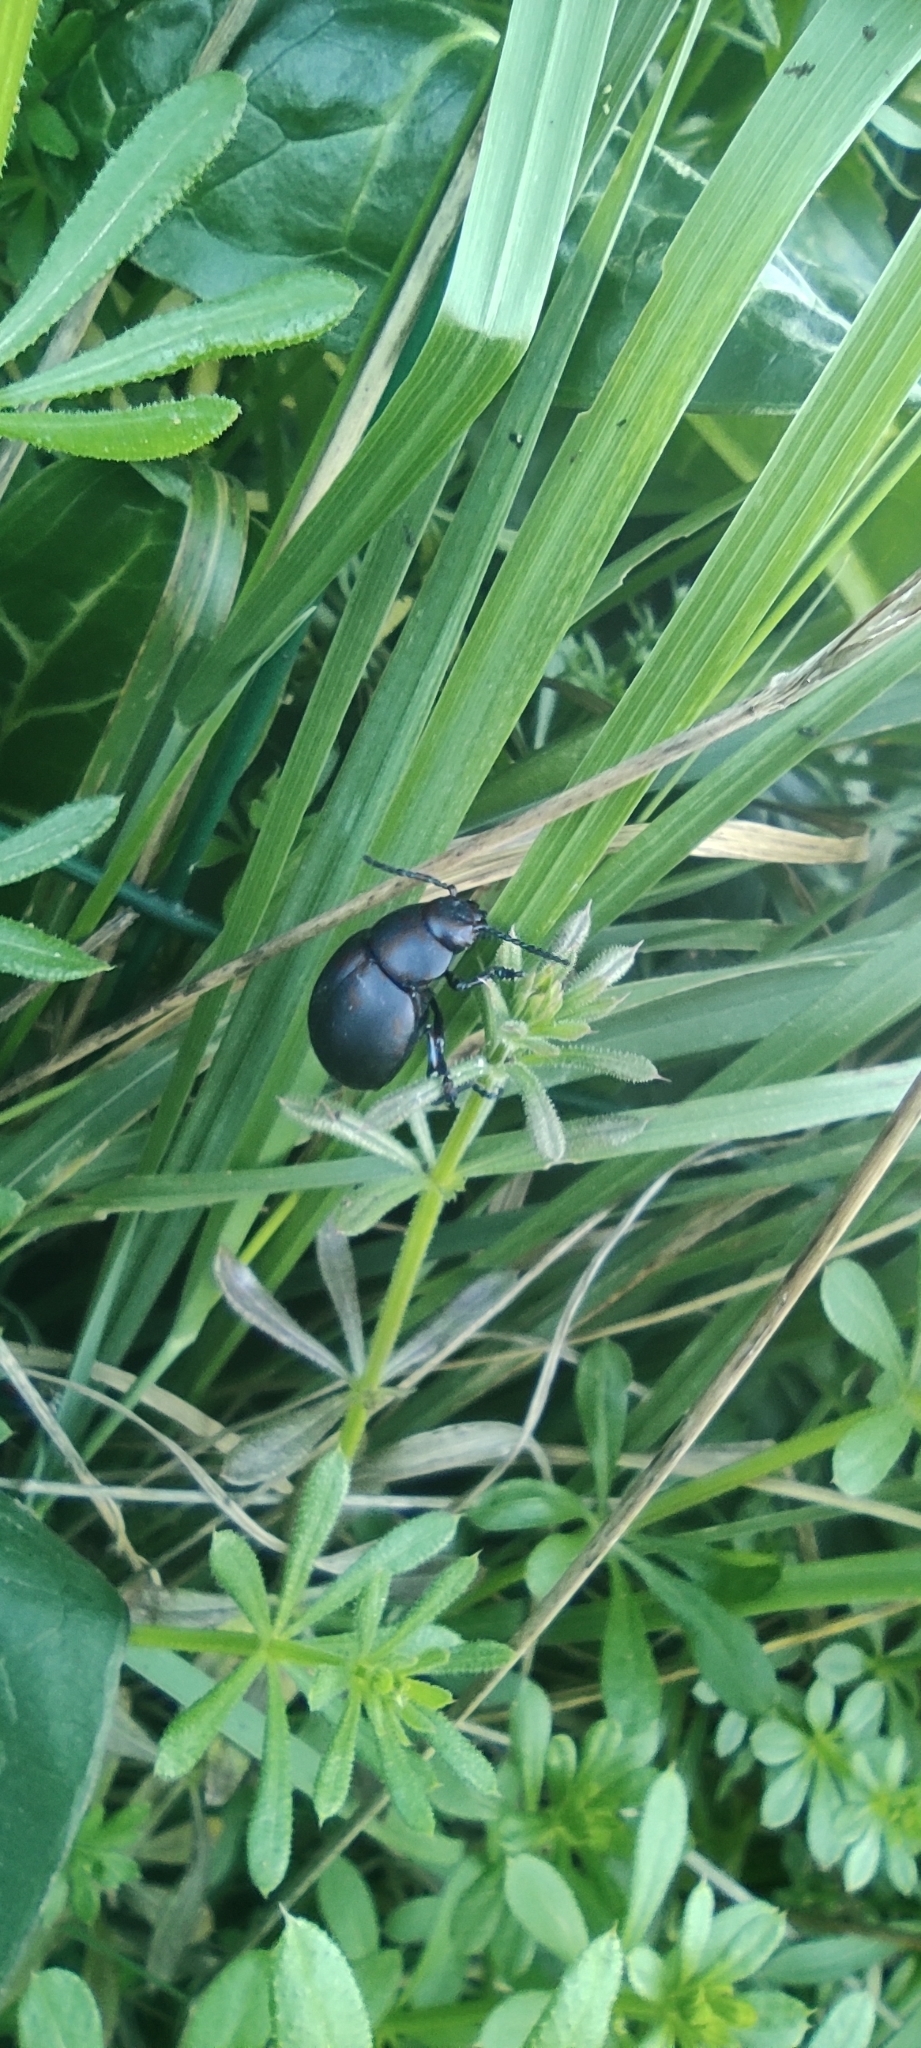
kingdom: Animalia
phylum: Arthropoda
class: Insecta
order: Coleoptera
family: Chrysomelidae
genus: Timarcha
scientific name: Timarcha tenebricosa
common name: Bloody-nosed beetle
